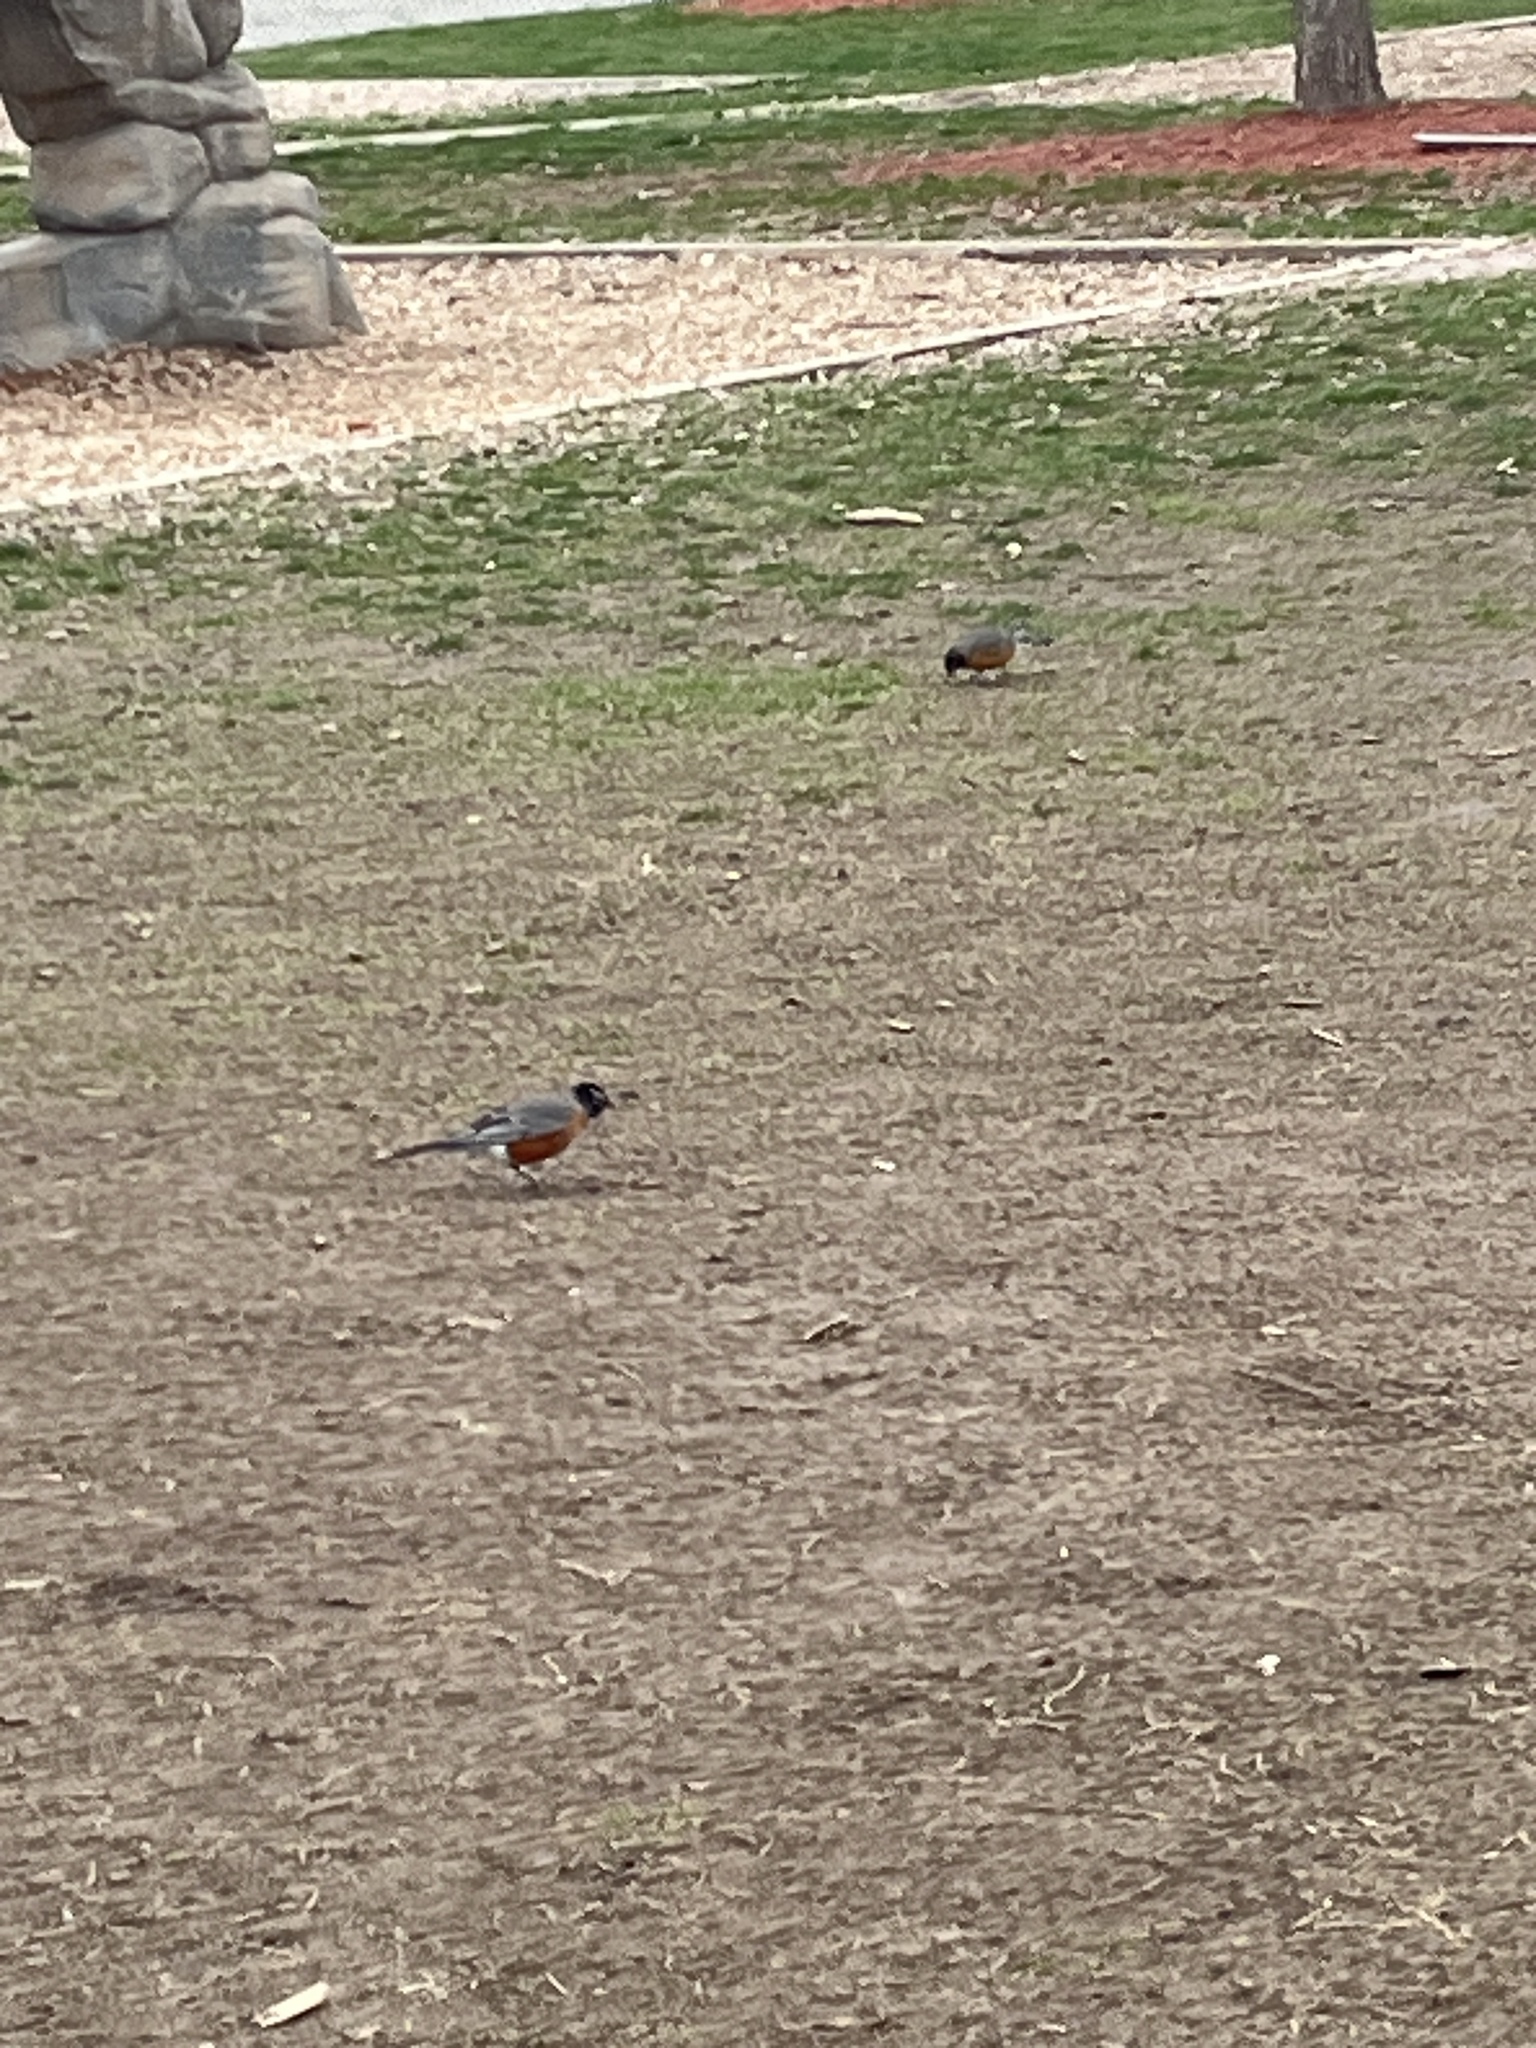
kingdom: Animalia
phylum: Chordata
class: Aves
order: Passeriformes
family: Turdidae
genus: Turdus
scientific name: Turdus migratorius
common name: American robin
